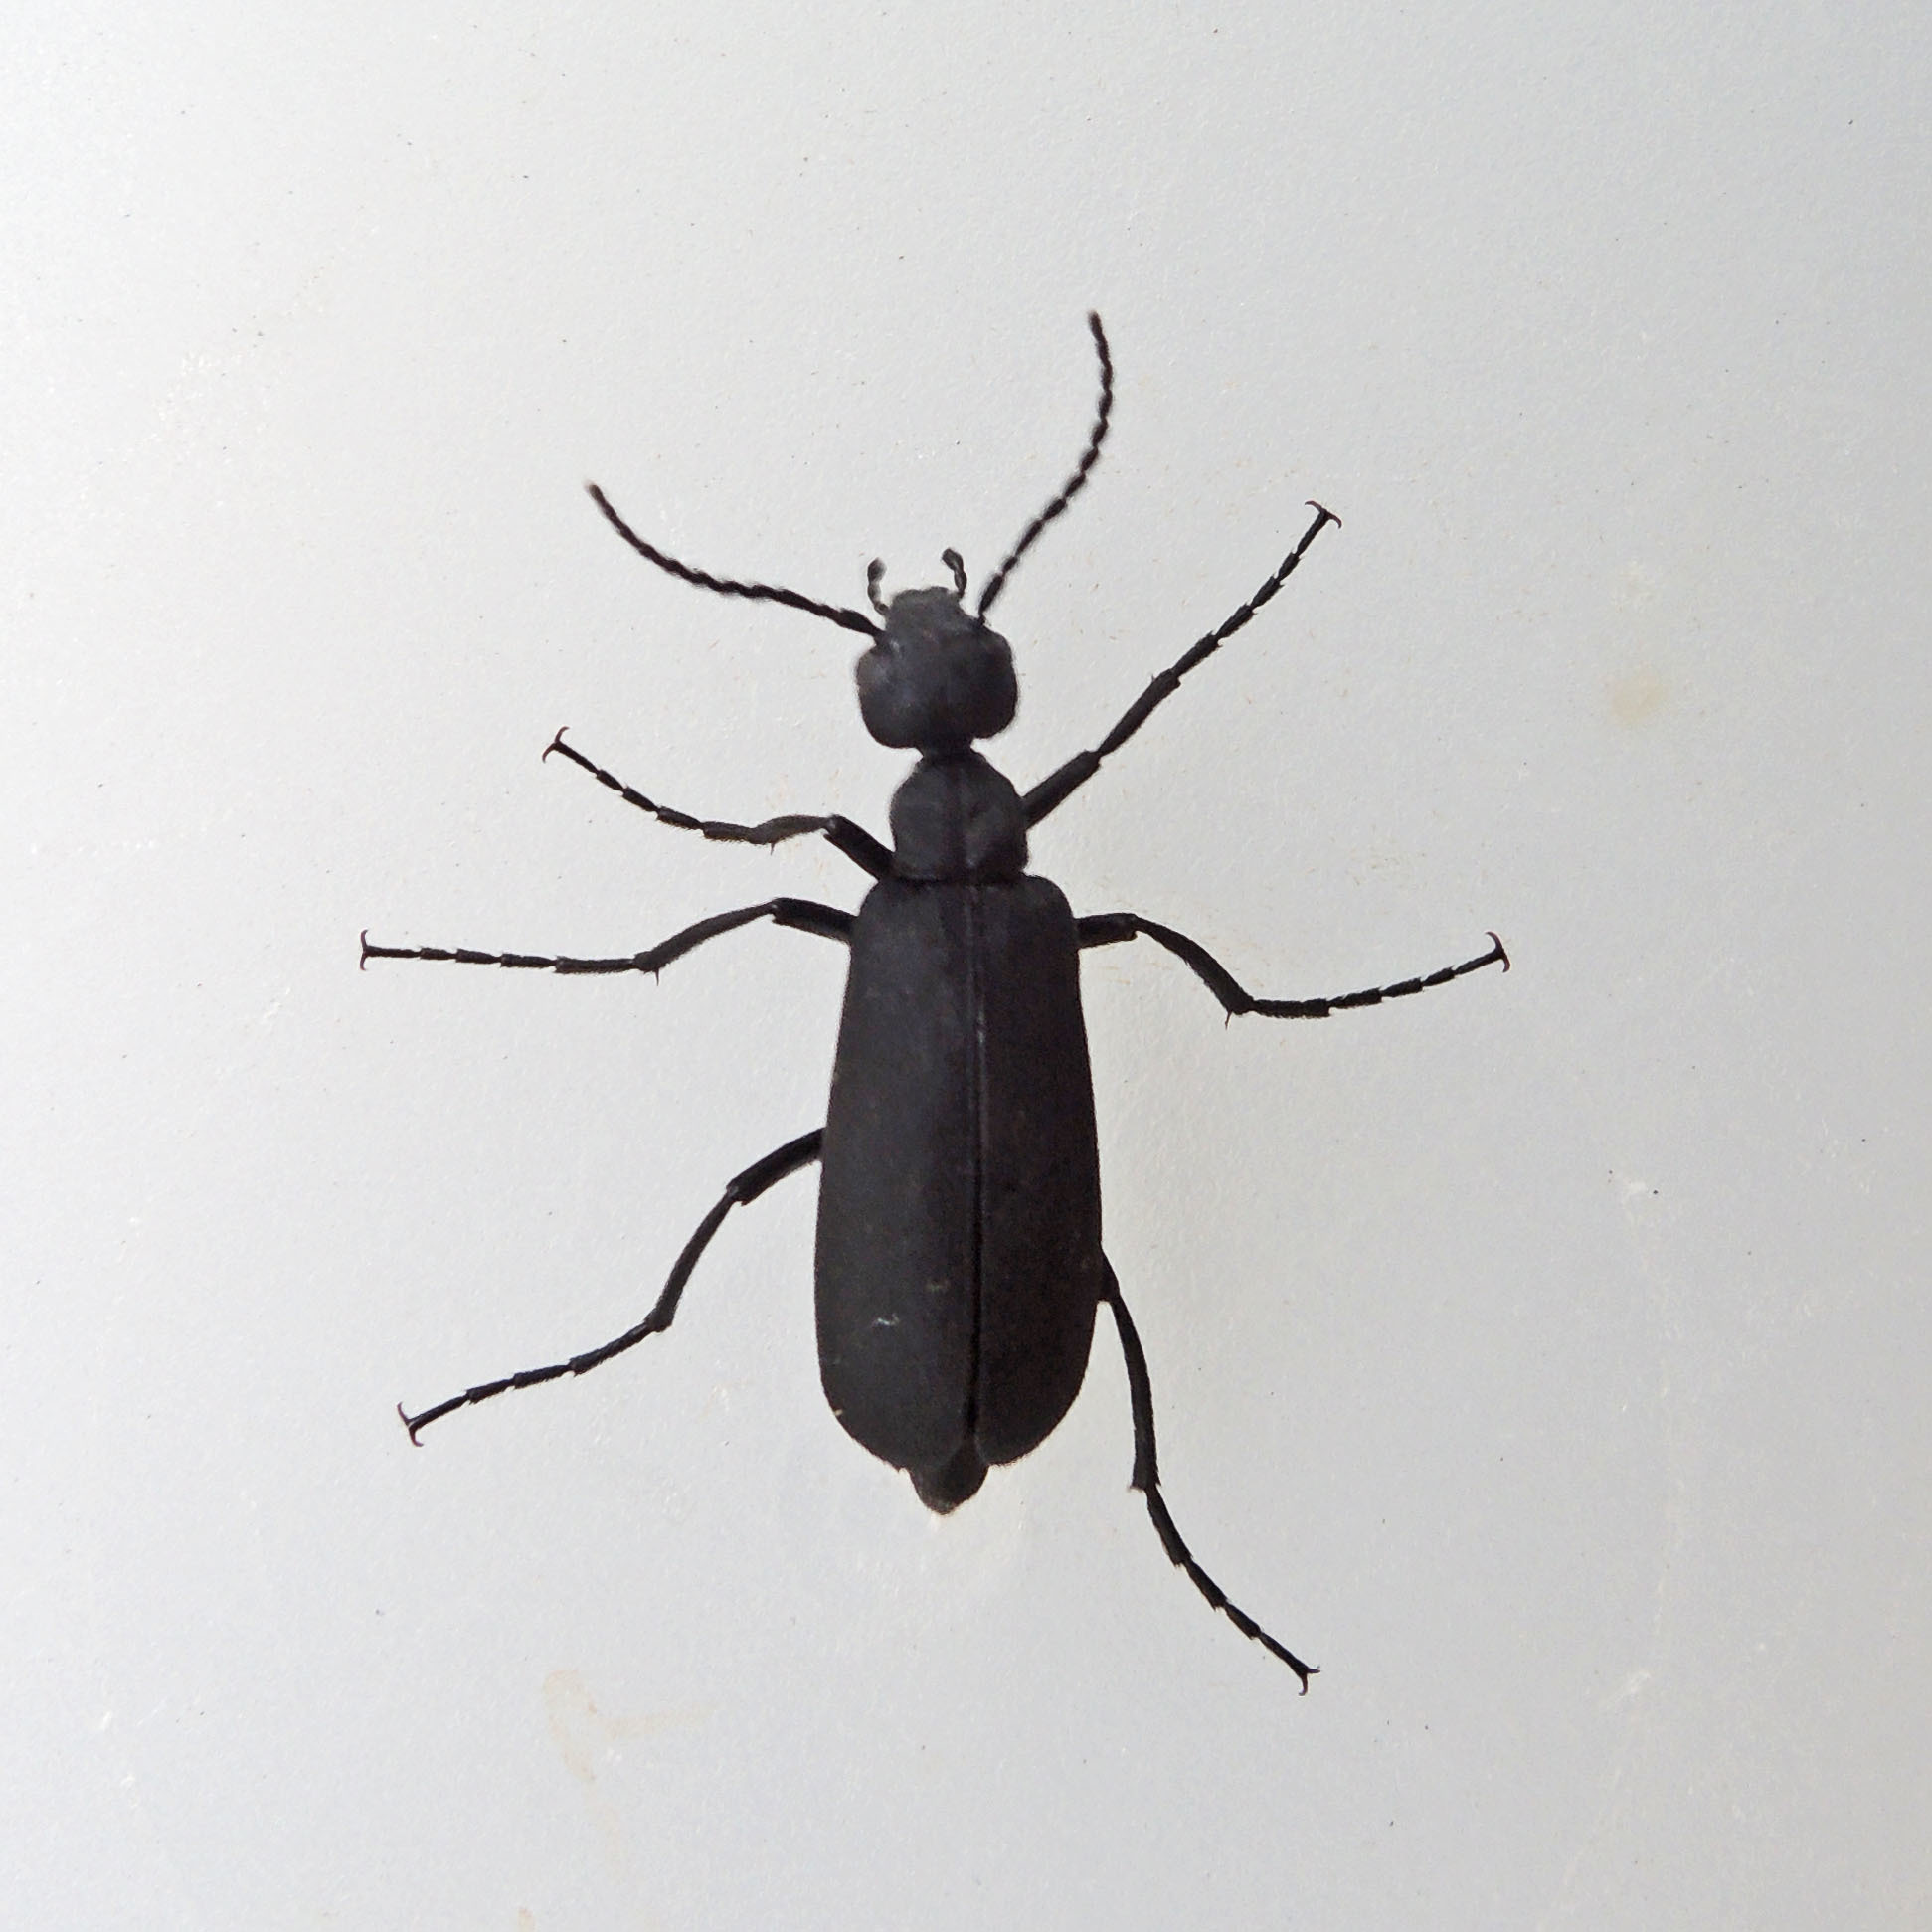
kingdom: Animalia
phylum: Arthropoda
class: Insecta
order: Coleoptera
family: Meloidae
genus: Epicauta
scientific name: Epicauta pensylvanica
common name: Black blister beetle
